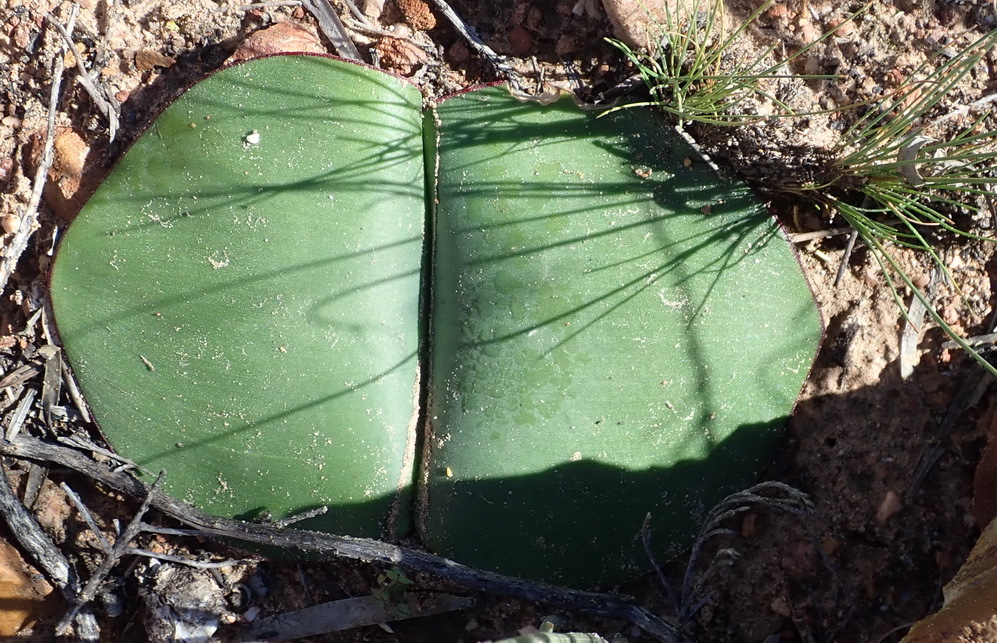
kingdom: Plantae
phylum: Tracheophyta
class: Liliopsida
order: Asparagales
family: Amaryllidaceae
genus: Haemanthus
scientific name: Haemanthus sanguineus
